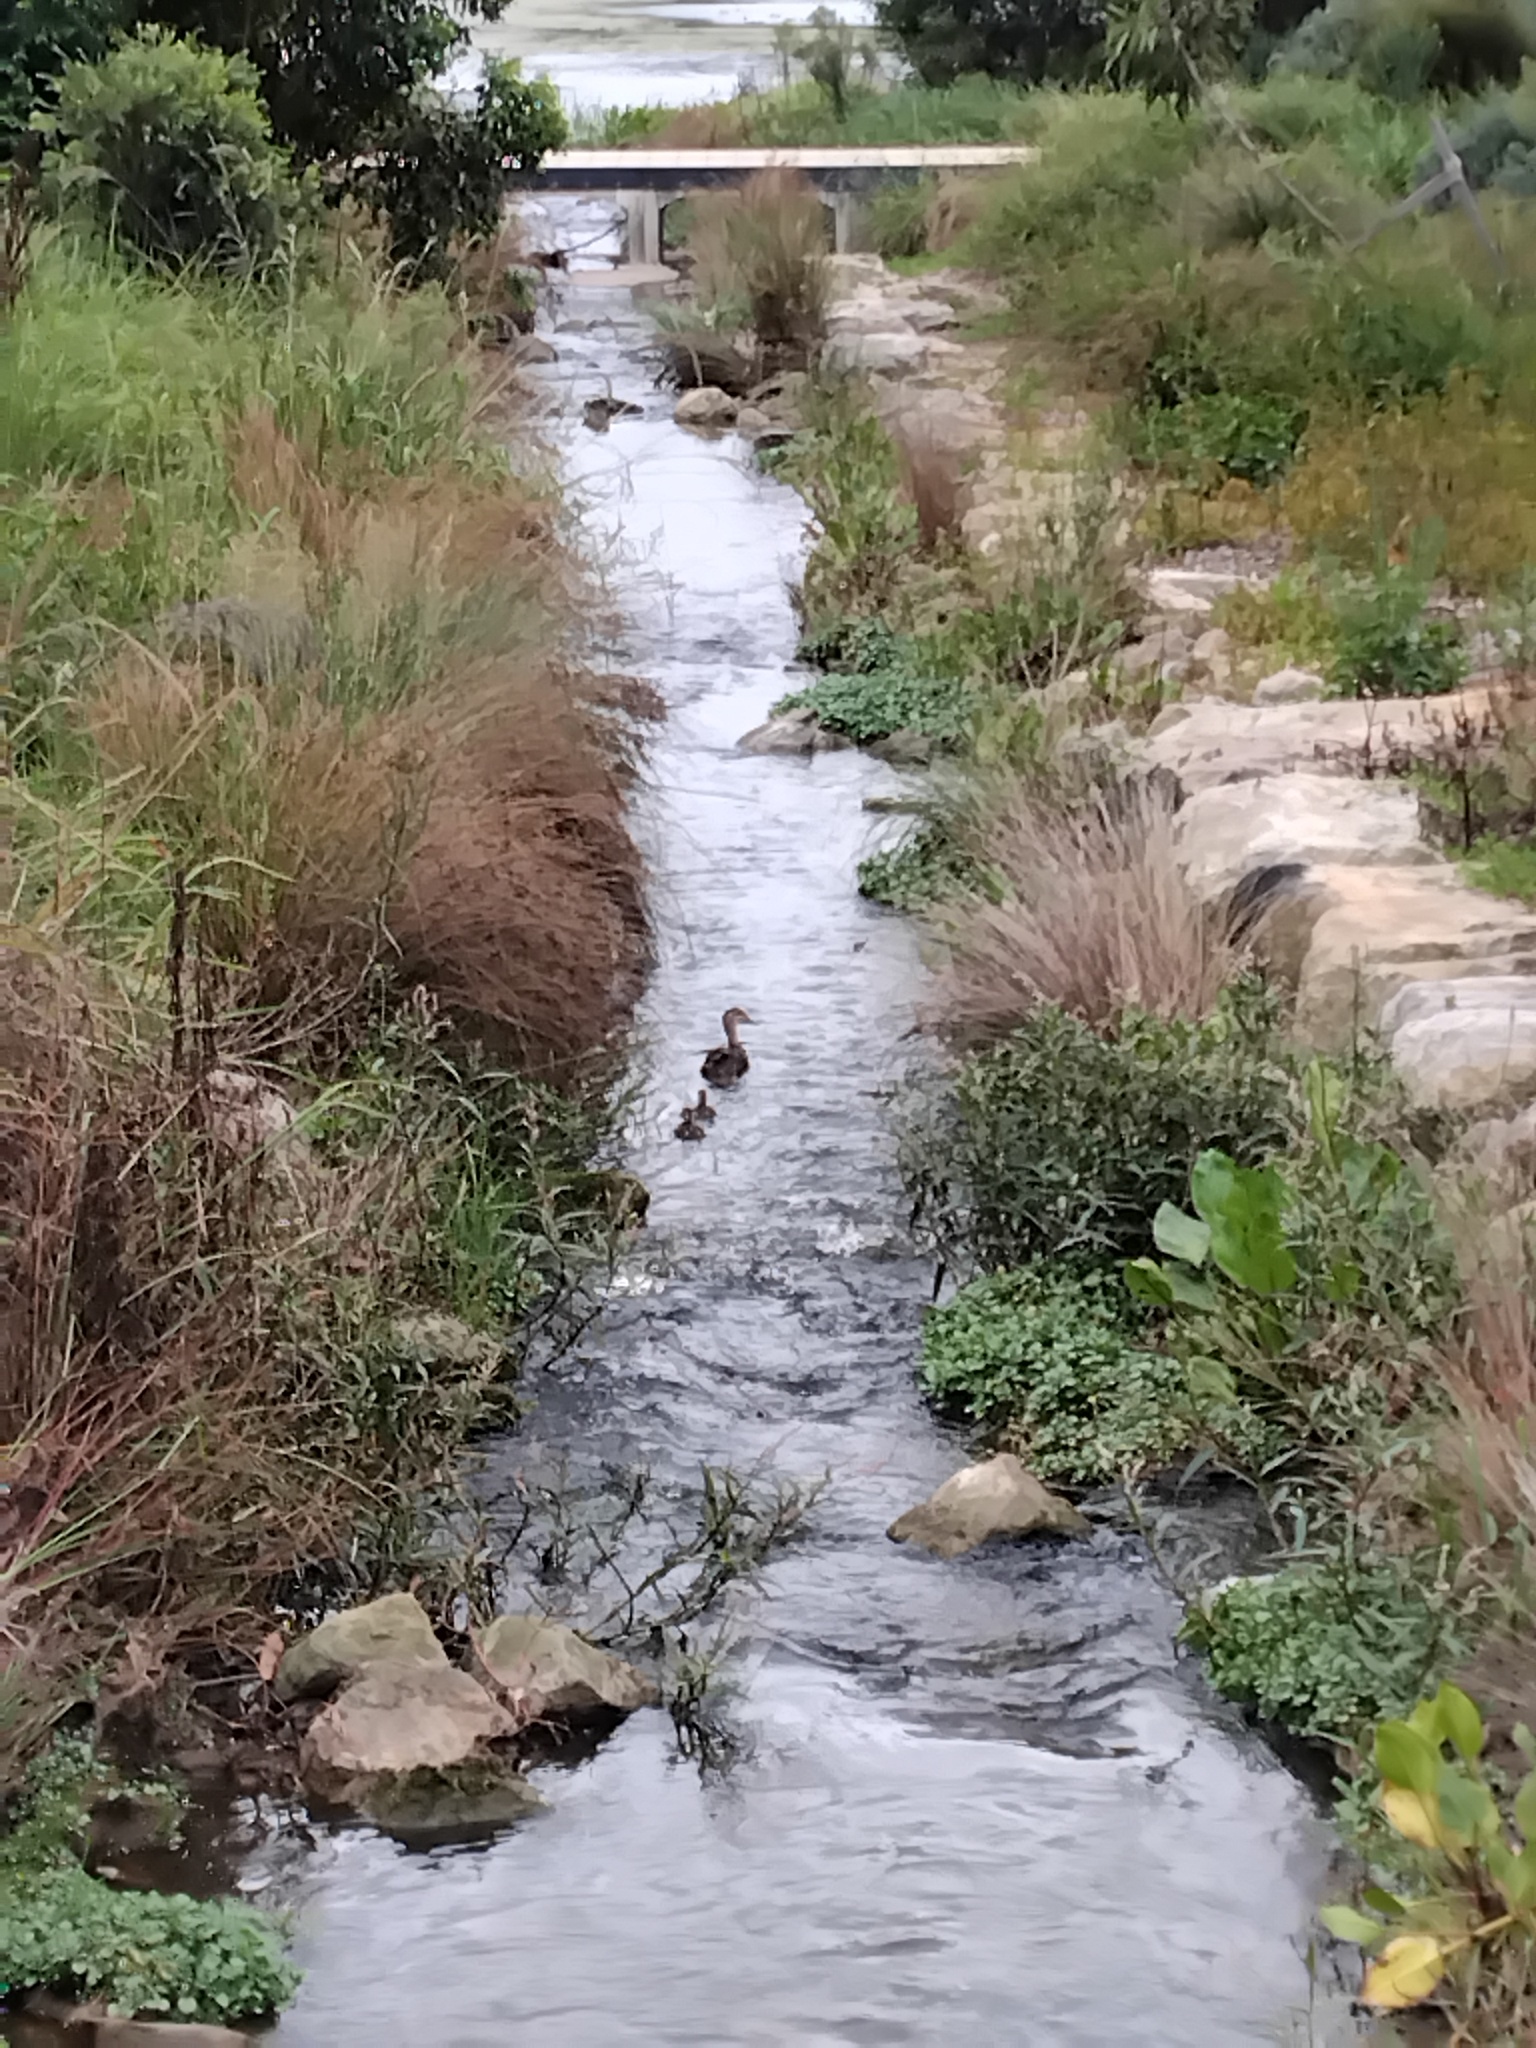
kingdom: Animalia
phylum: Chordata
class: Aves
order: Anseriformes
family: Anatidae
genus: Anas
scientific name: Anas superciliosa
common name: Pacific black duck
